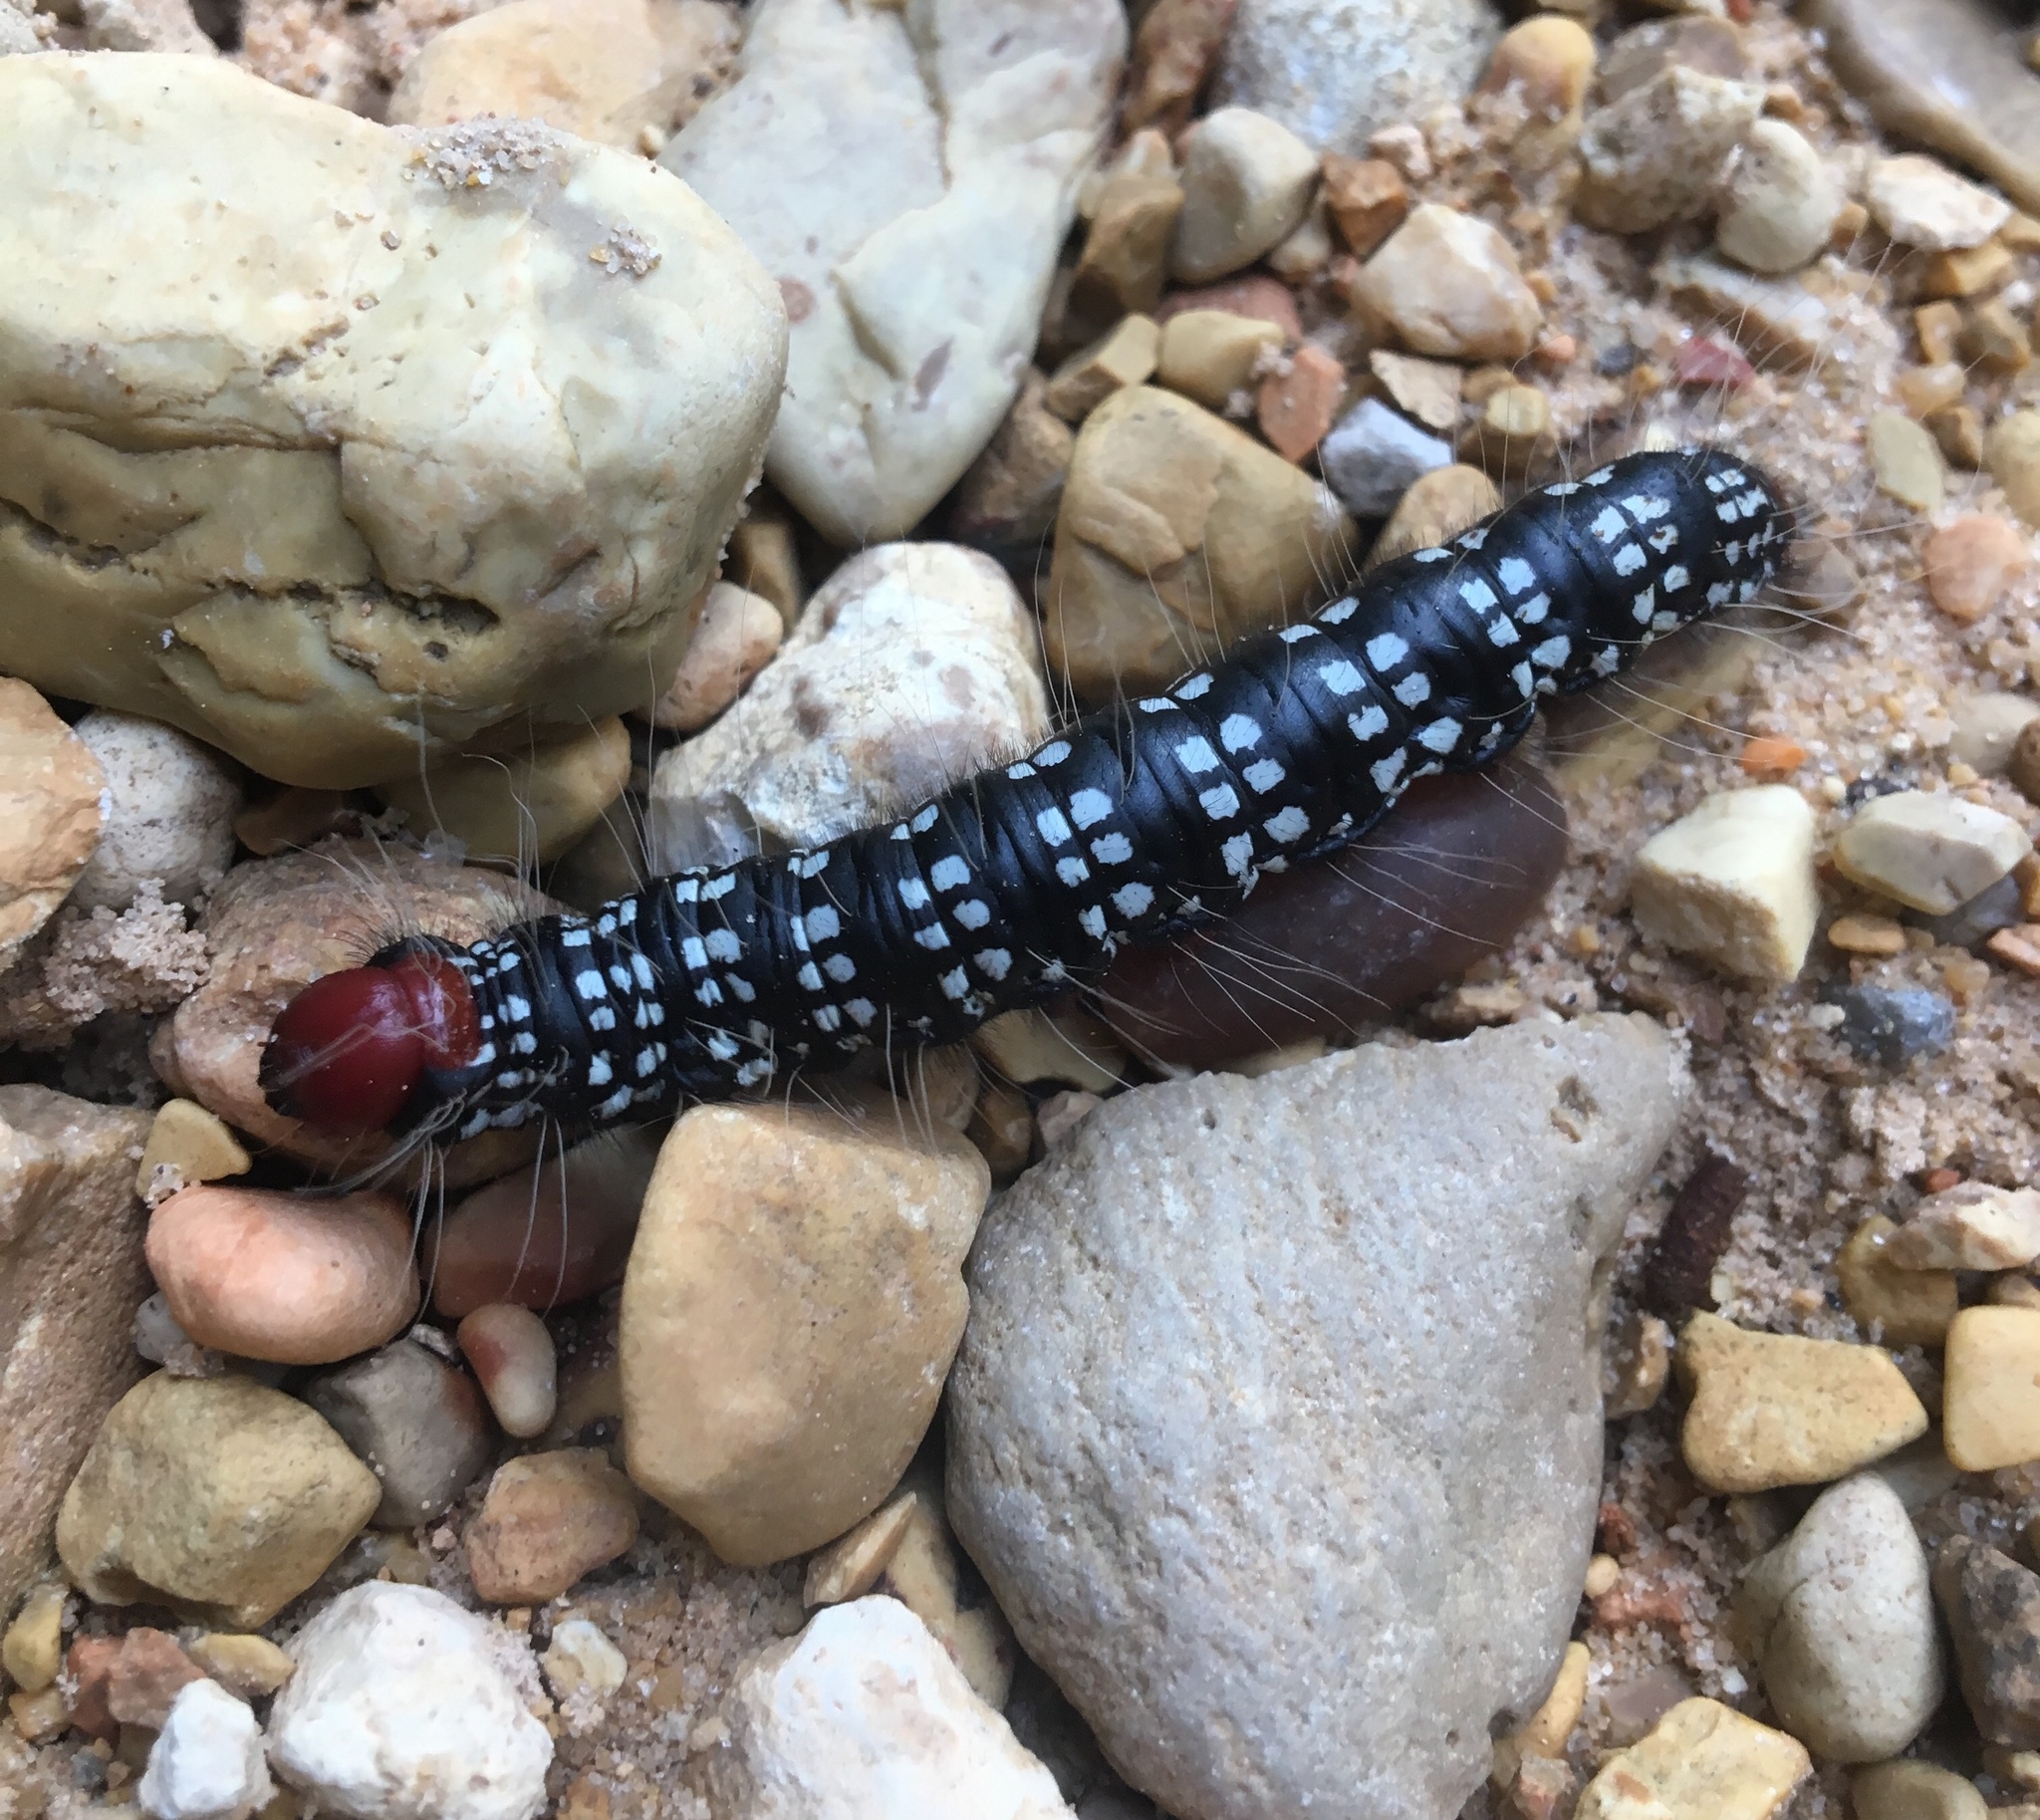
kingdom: Animalia
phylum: Arthropoda
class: Insecta
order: Lepidoptera
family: Notodontidae
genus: Datana
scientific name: Datana major
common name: Azalea caterpillar
